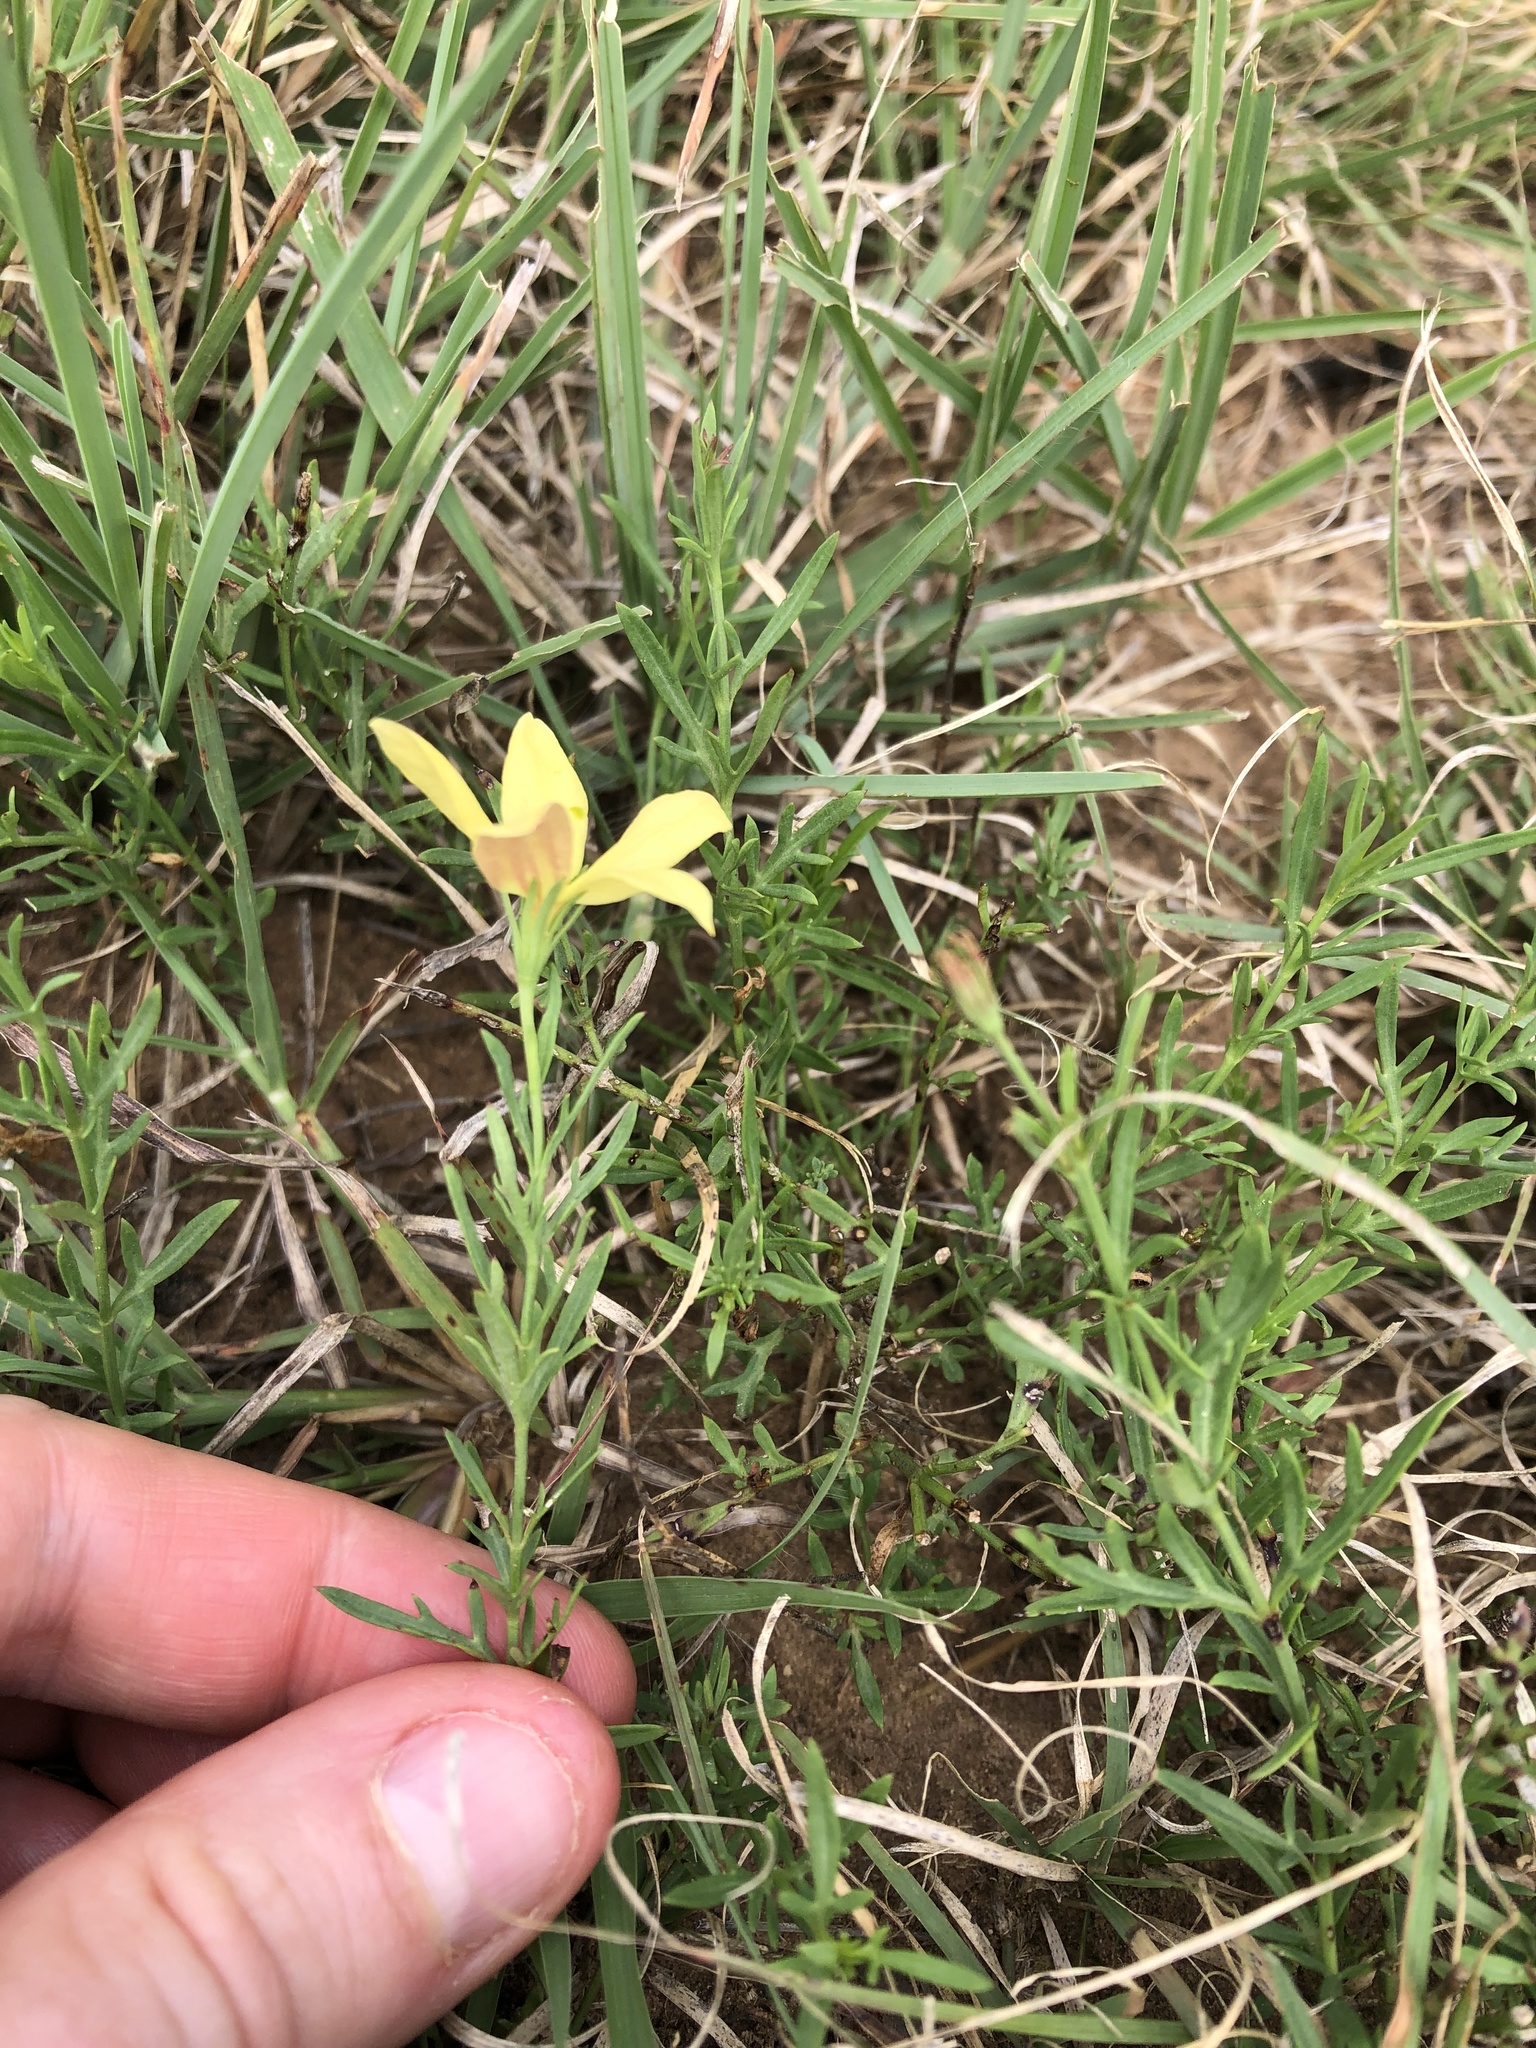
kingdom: Plantae
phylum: Tracheophyta
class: Magnoliopsida
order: Lamiales
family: Oleaceae
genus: Menodora
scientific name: Menodora heterophylla
